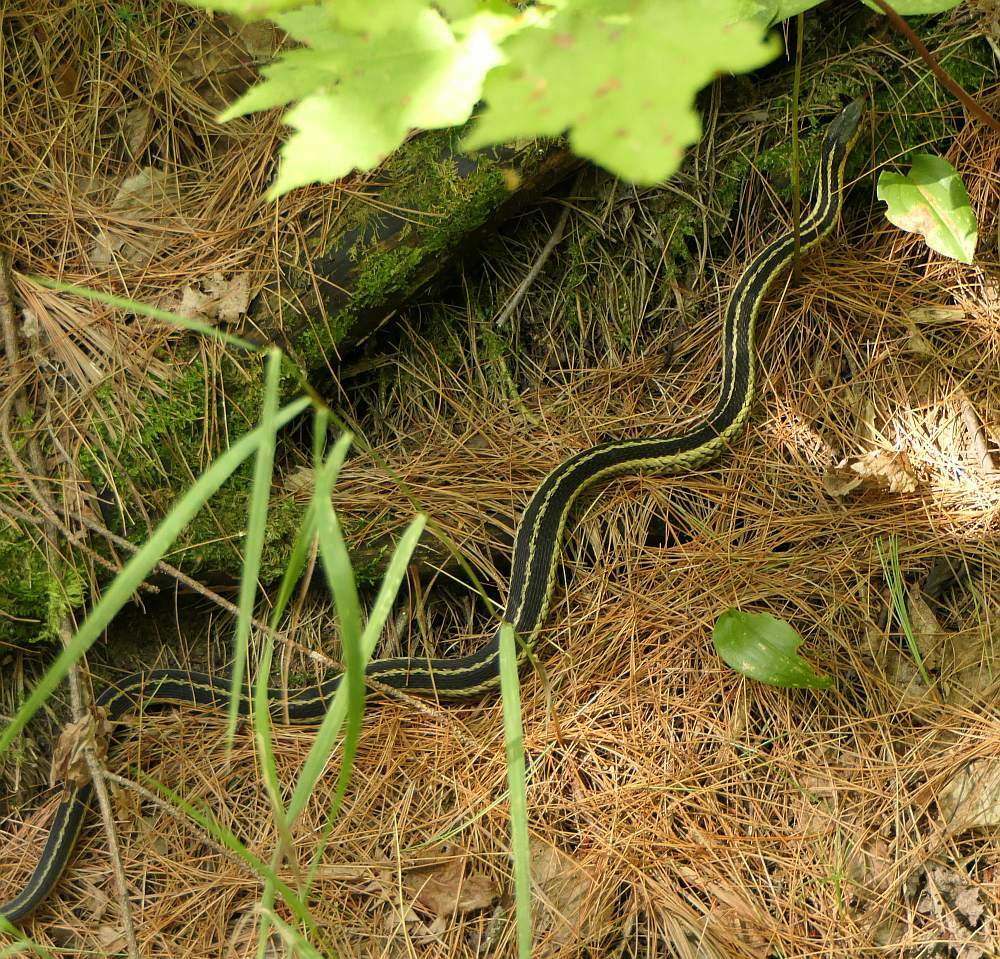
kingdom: Animalia
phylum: Chordata
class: Squamata
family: Colubridae
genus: Thamnophis
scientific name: Thamnophis sirtalis
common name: Common garter snake
